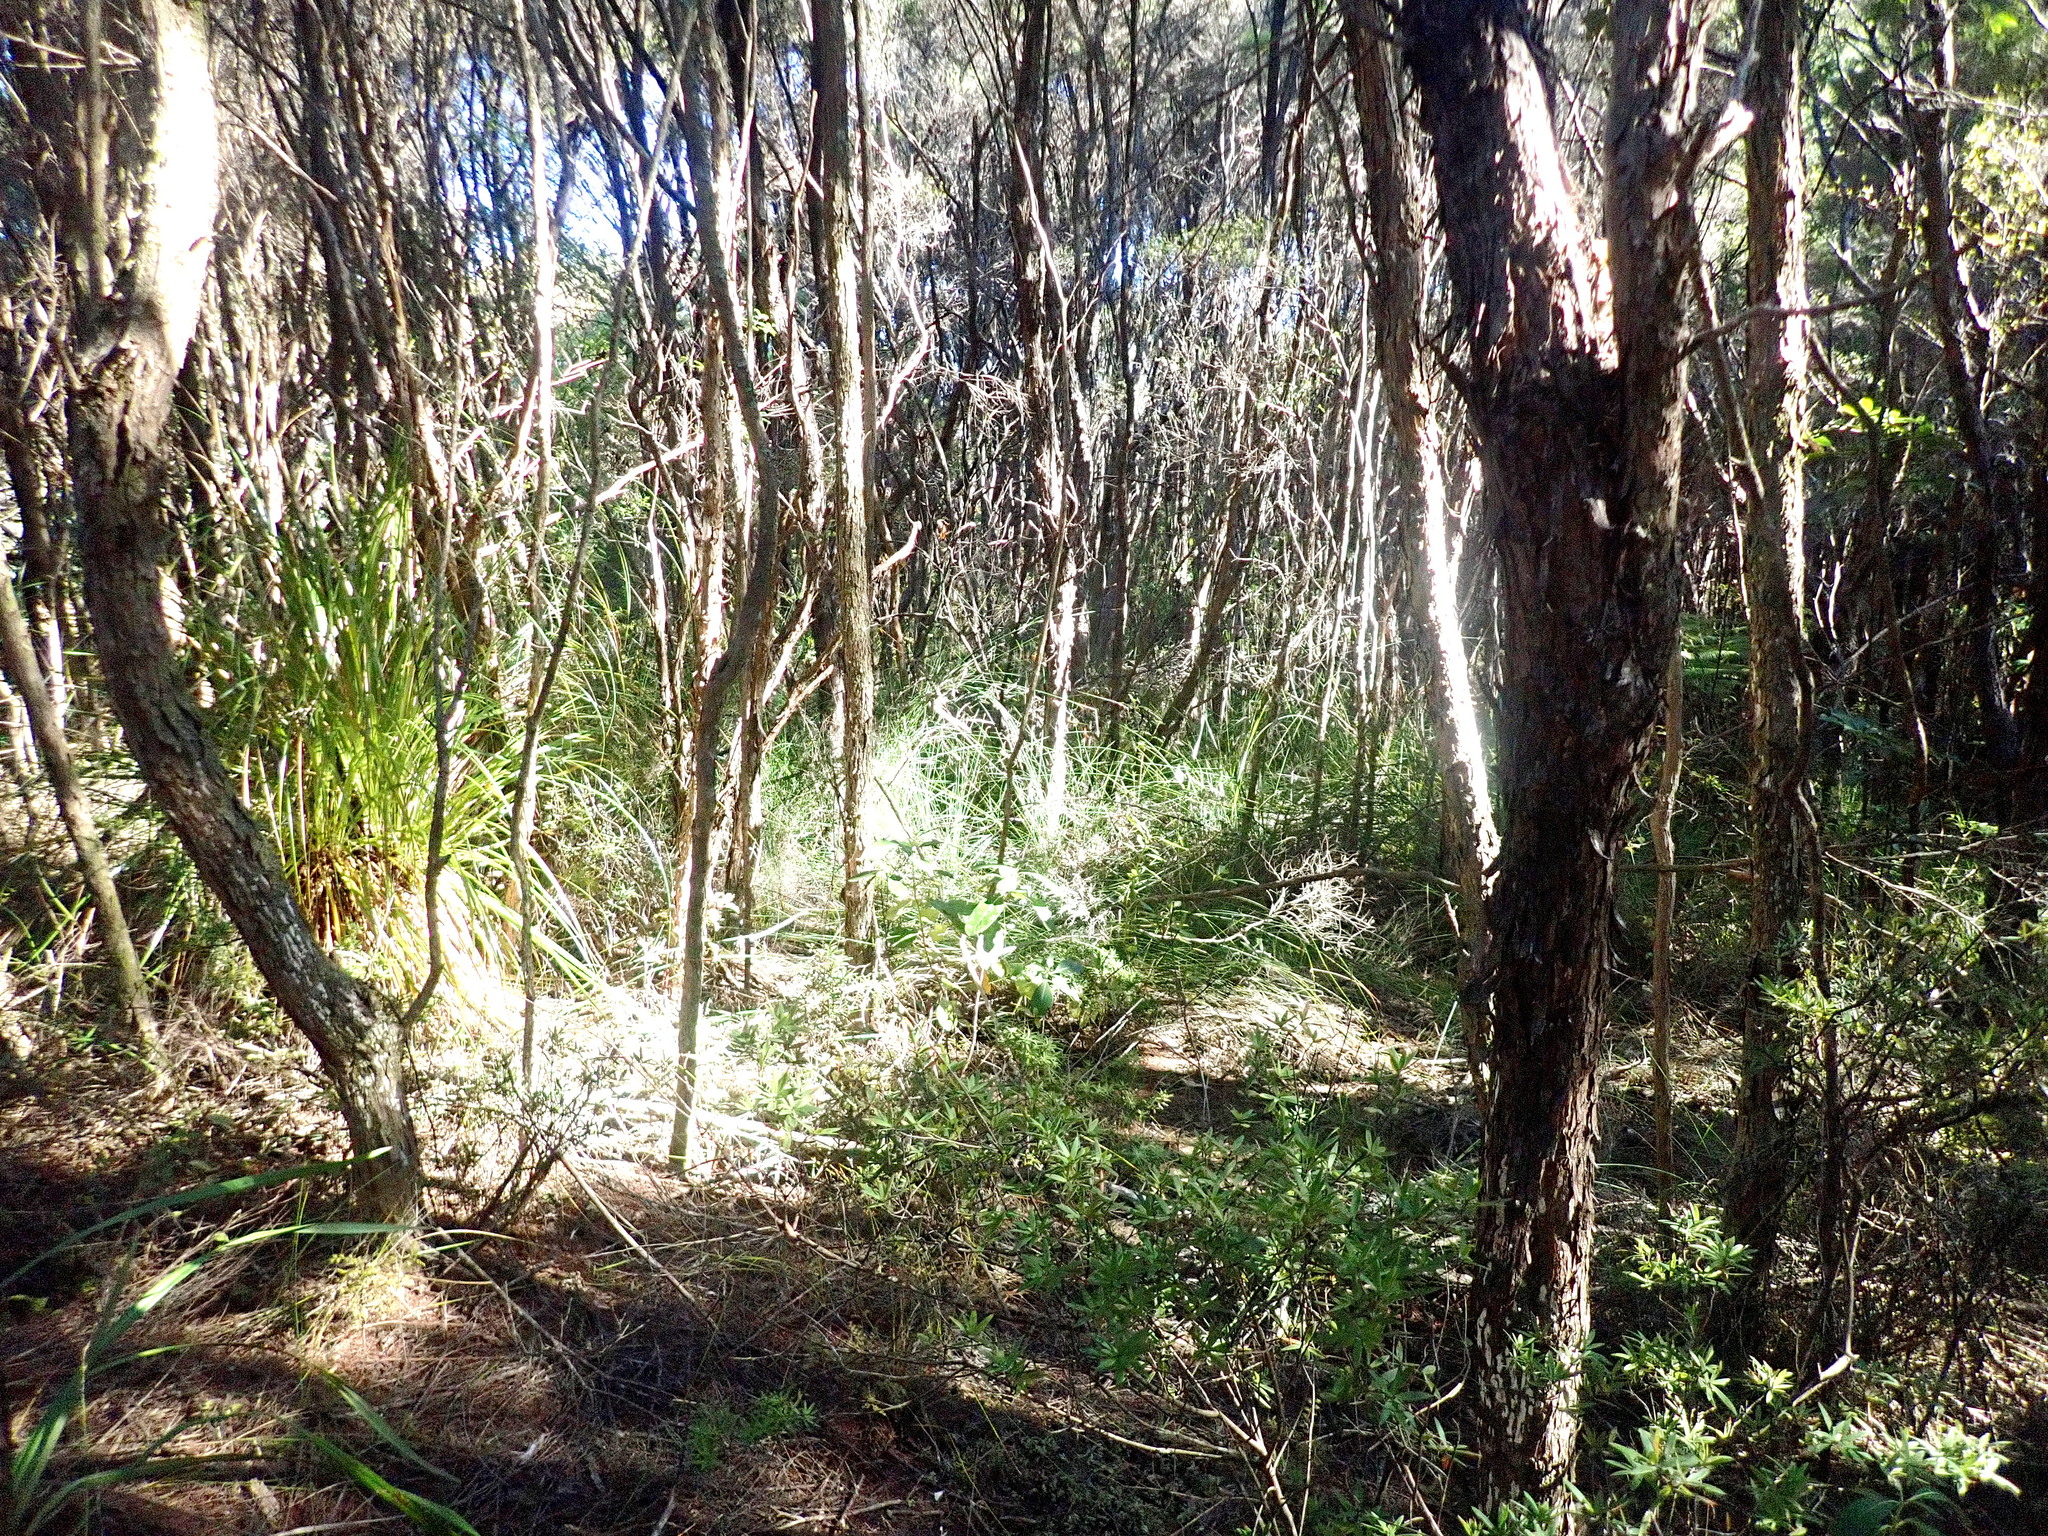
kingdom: Plantae
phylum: Tracheophyta
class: Magnoliopsida
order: Ericales
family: Ericaceae
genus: Leucopogon
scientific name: Leucopogon fasciculatus
